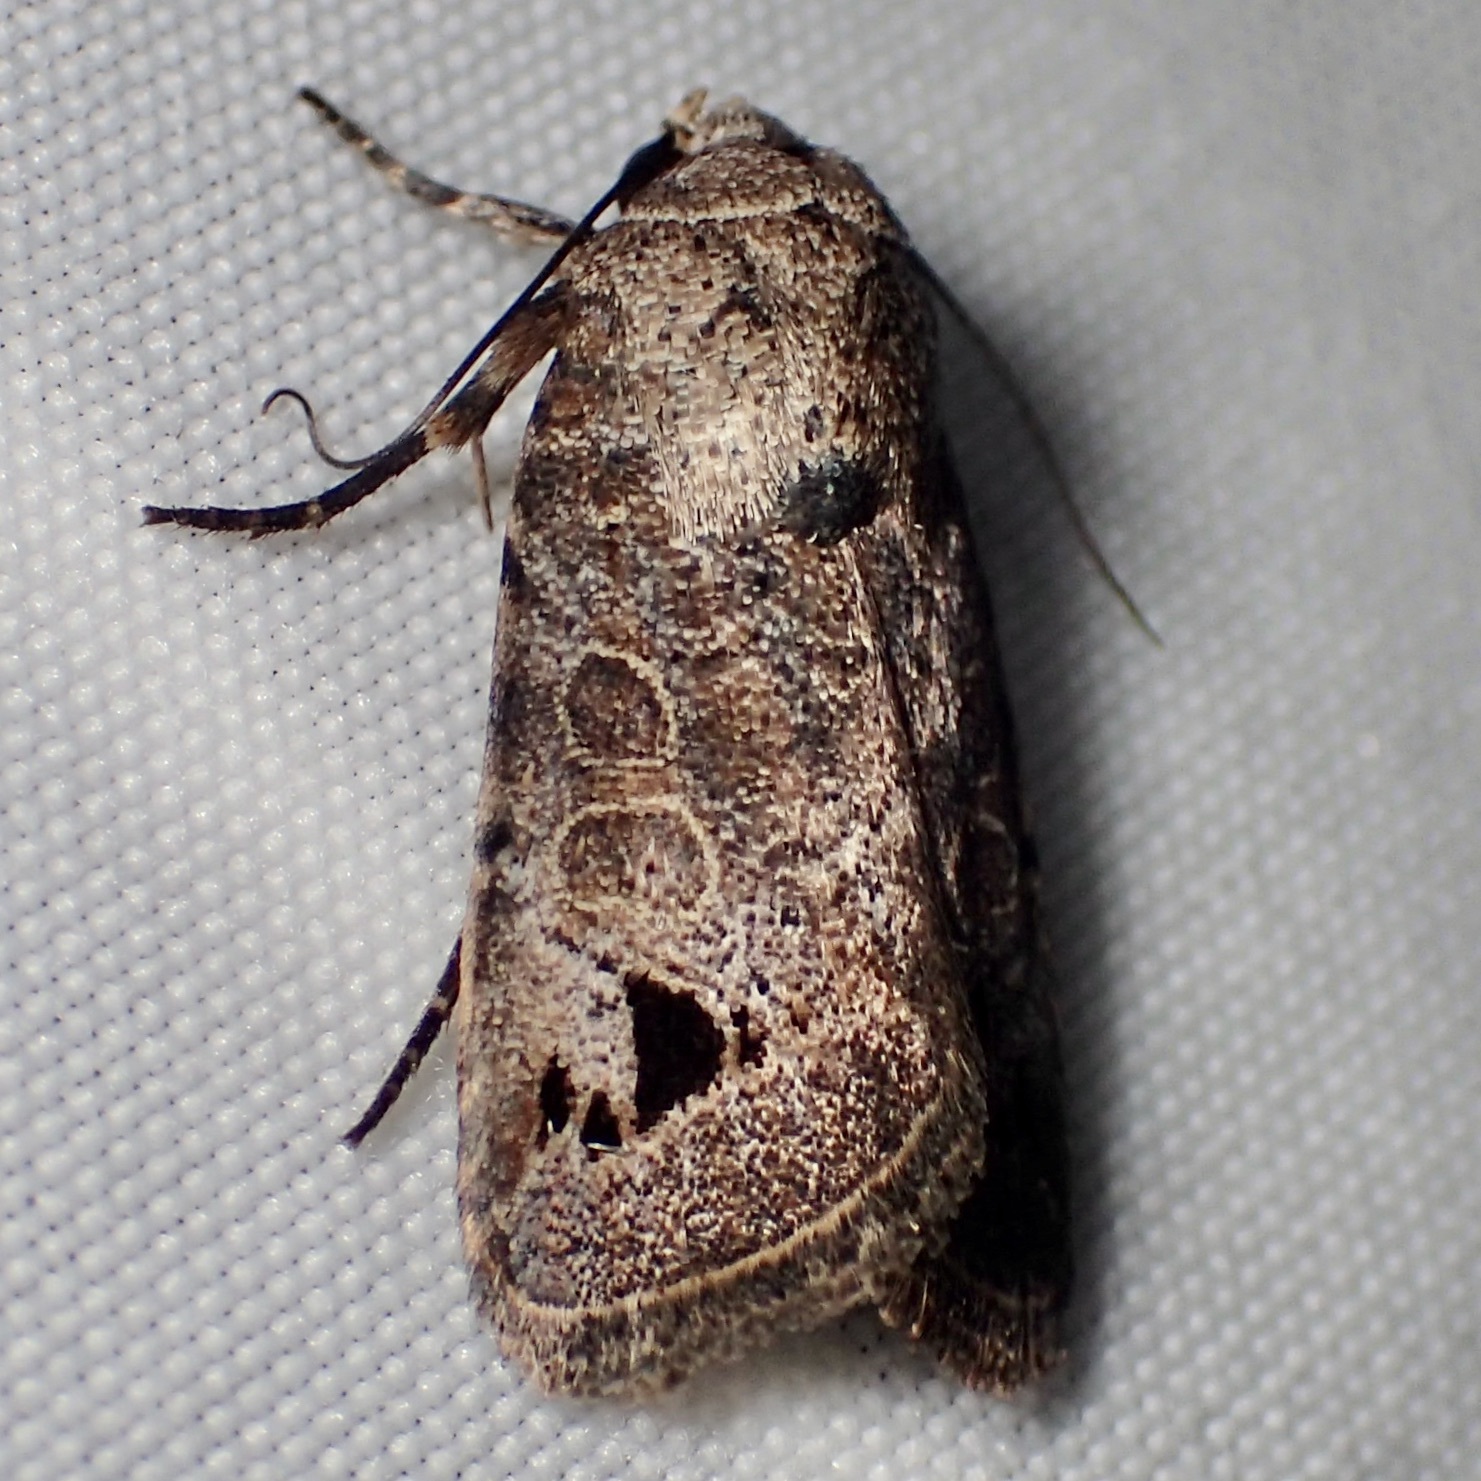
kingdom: Animalia
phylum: Arthropoda
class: Insecta
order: Lepidoptera
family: Noctuidae
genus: Anorthodes
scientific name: Anorthodes triquetra
